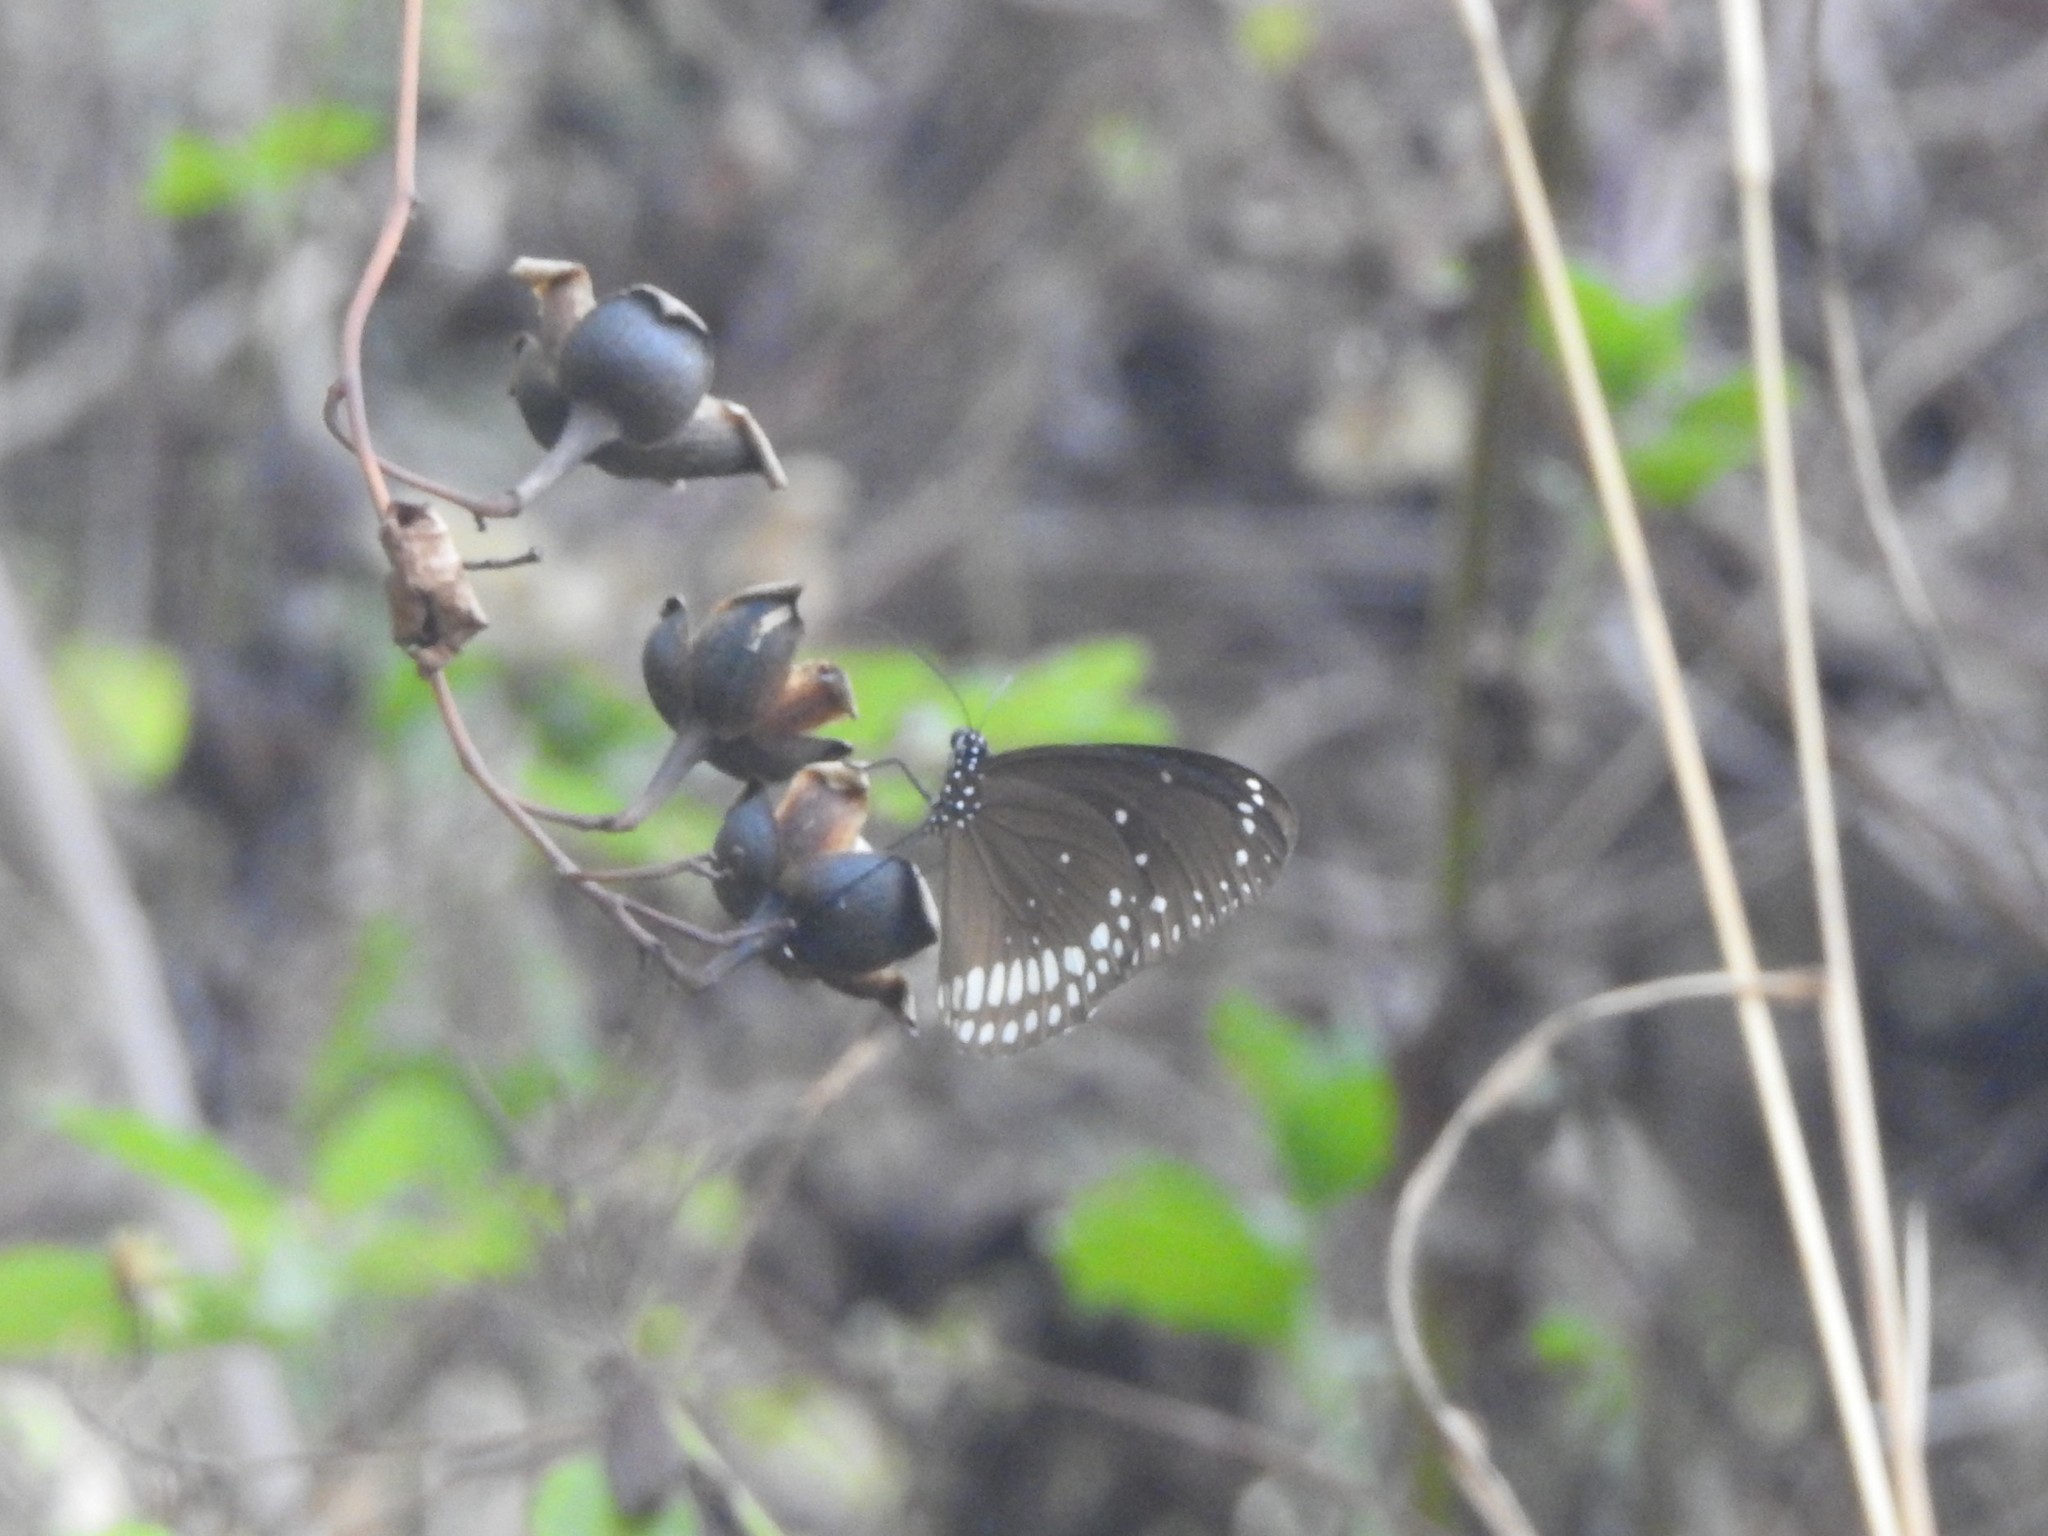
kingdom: Animalia
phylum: Arthropoda
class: Insecta
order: Lepidoptera
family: Nymphalidae
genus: Euploea
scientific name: Euploea core
